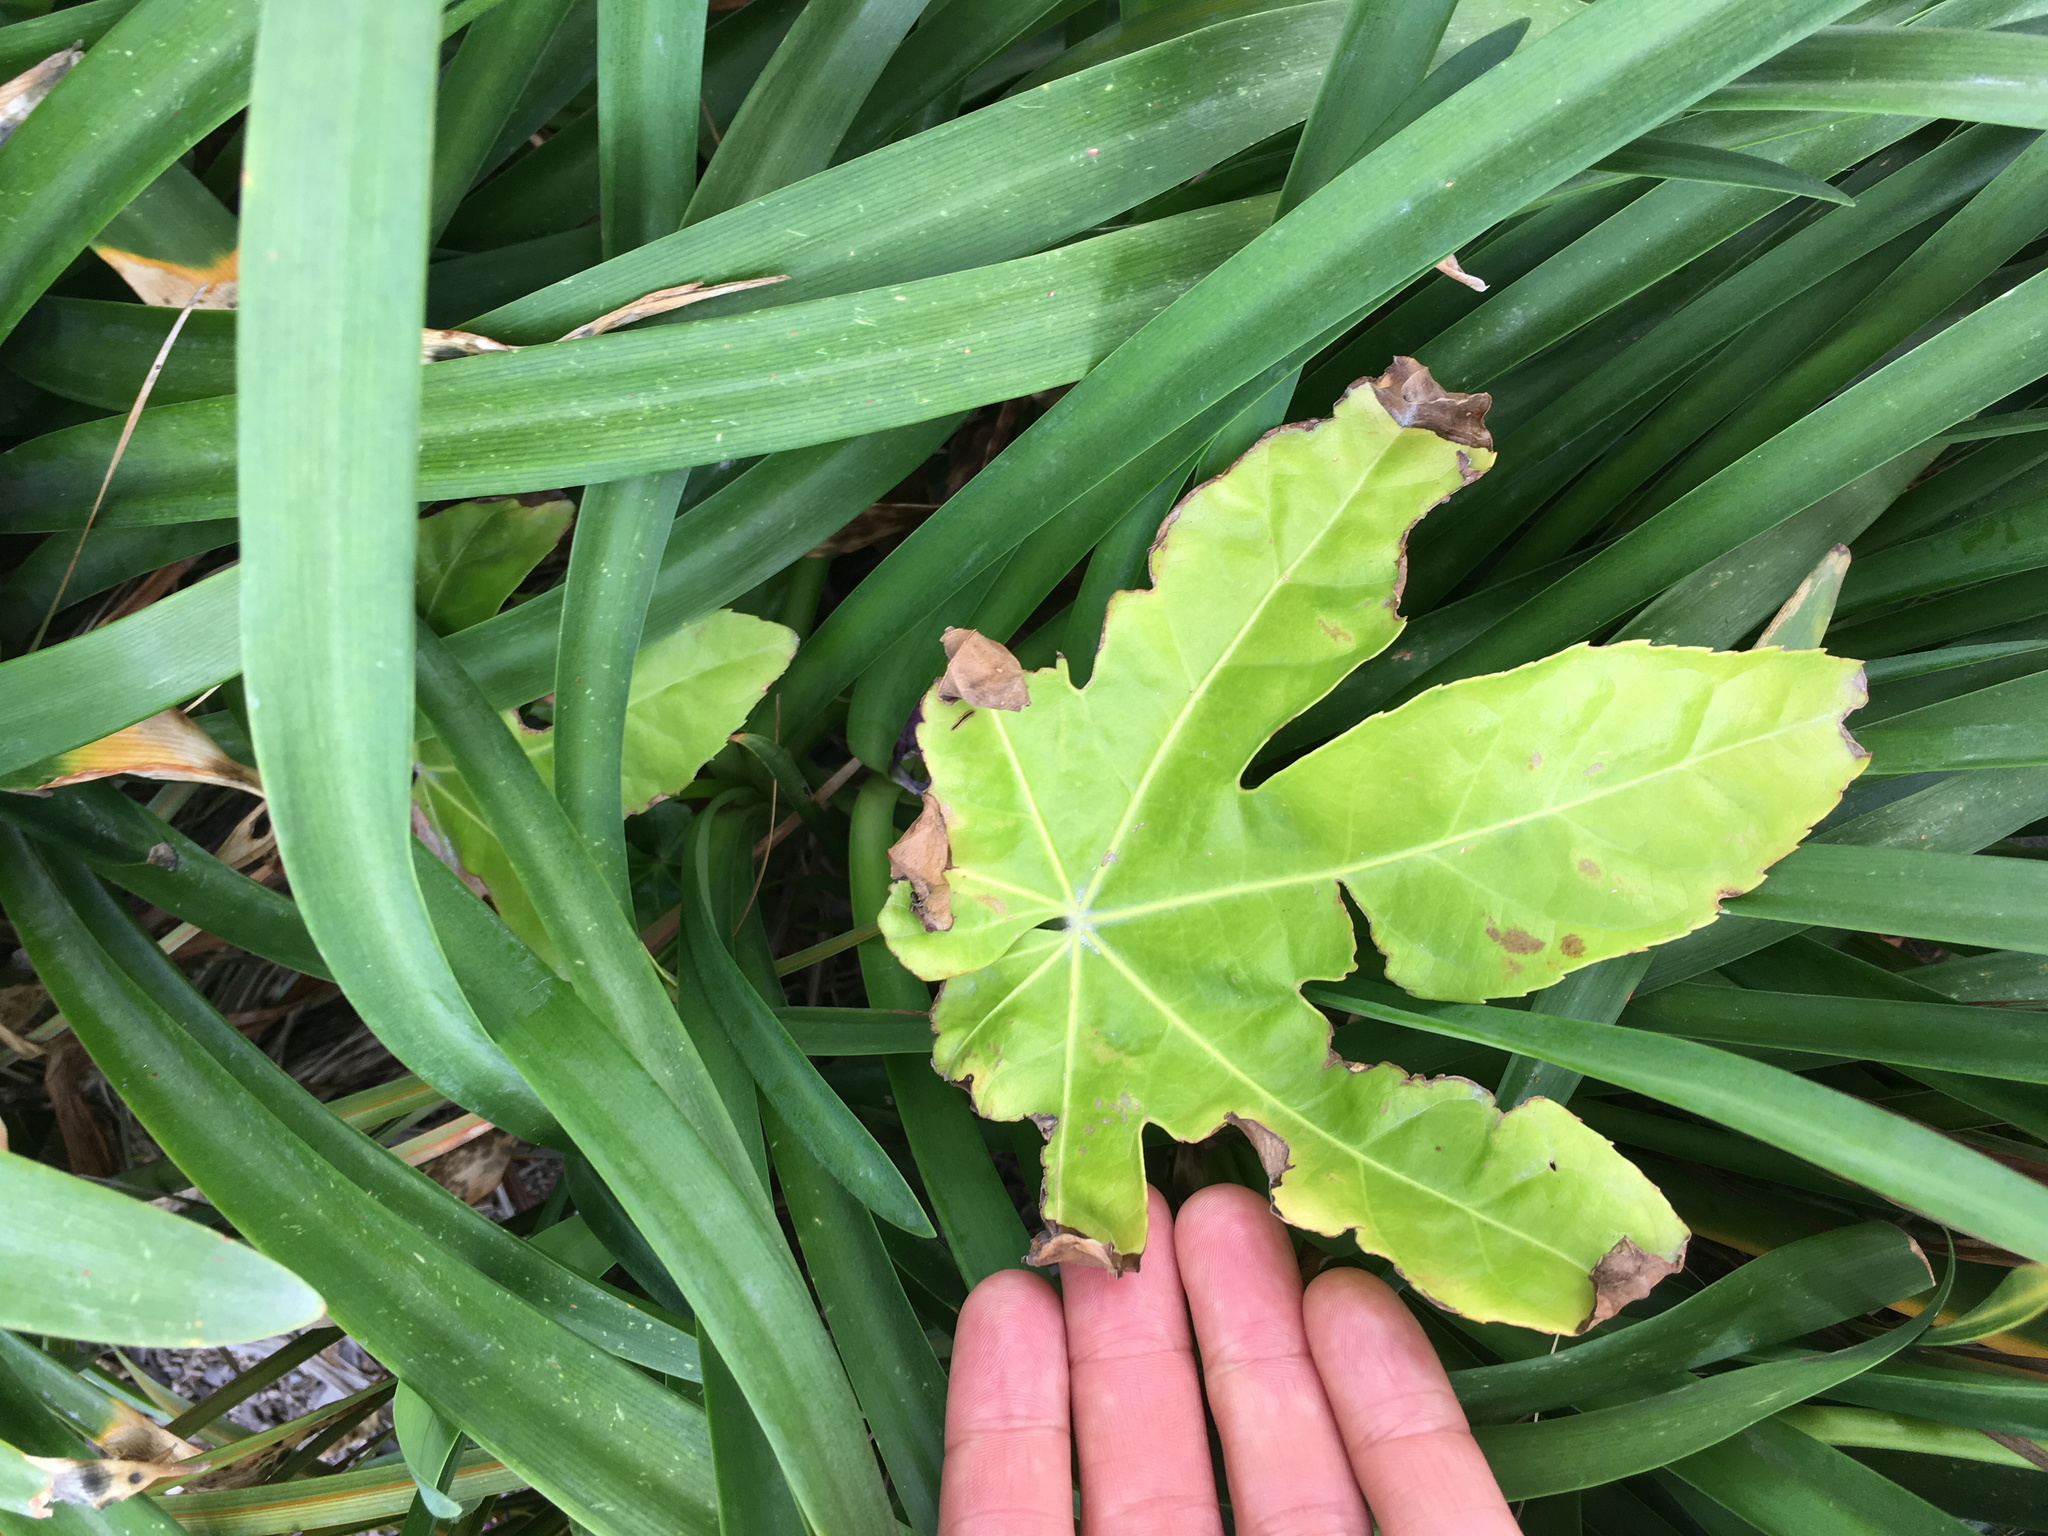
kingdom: Plantae
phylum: Tracheophyta
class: Magnoliopsida
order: Apiales
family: Araliaceae
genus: Fatsia
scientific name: Fatsia japonica
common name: Fatsia
